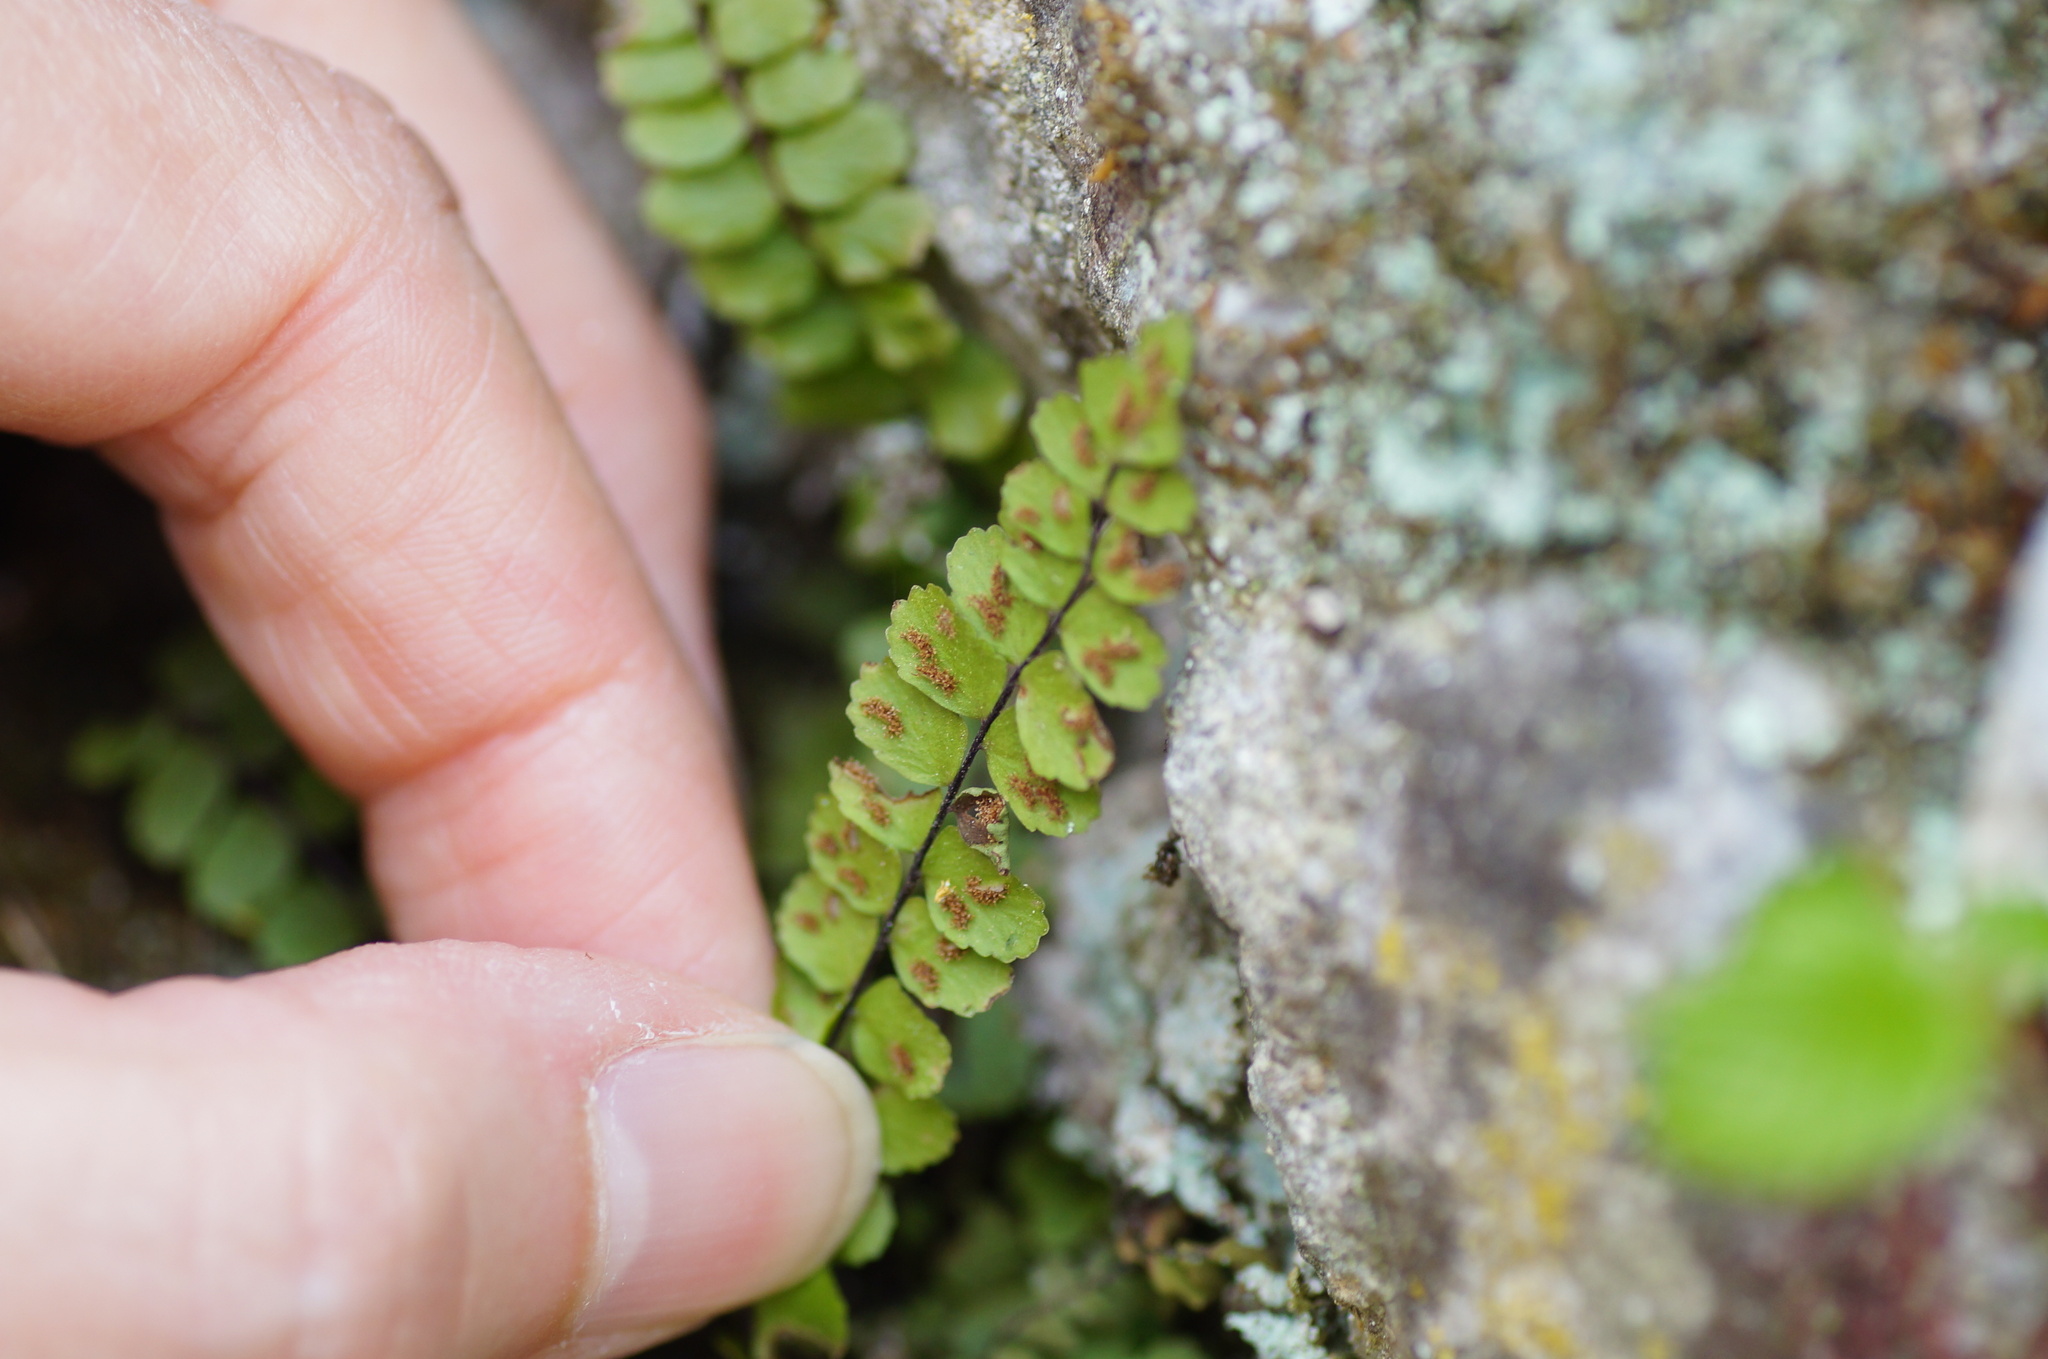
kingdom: Plantae
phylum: Tracheophyta
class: Polypodiopsida
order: Polypodiales
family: Aspleniaceae
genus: Asplenium
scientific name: Asplenium trichomanes
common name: Maidenhair spleenwort
